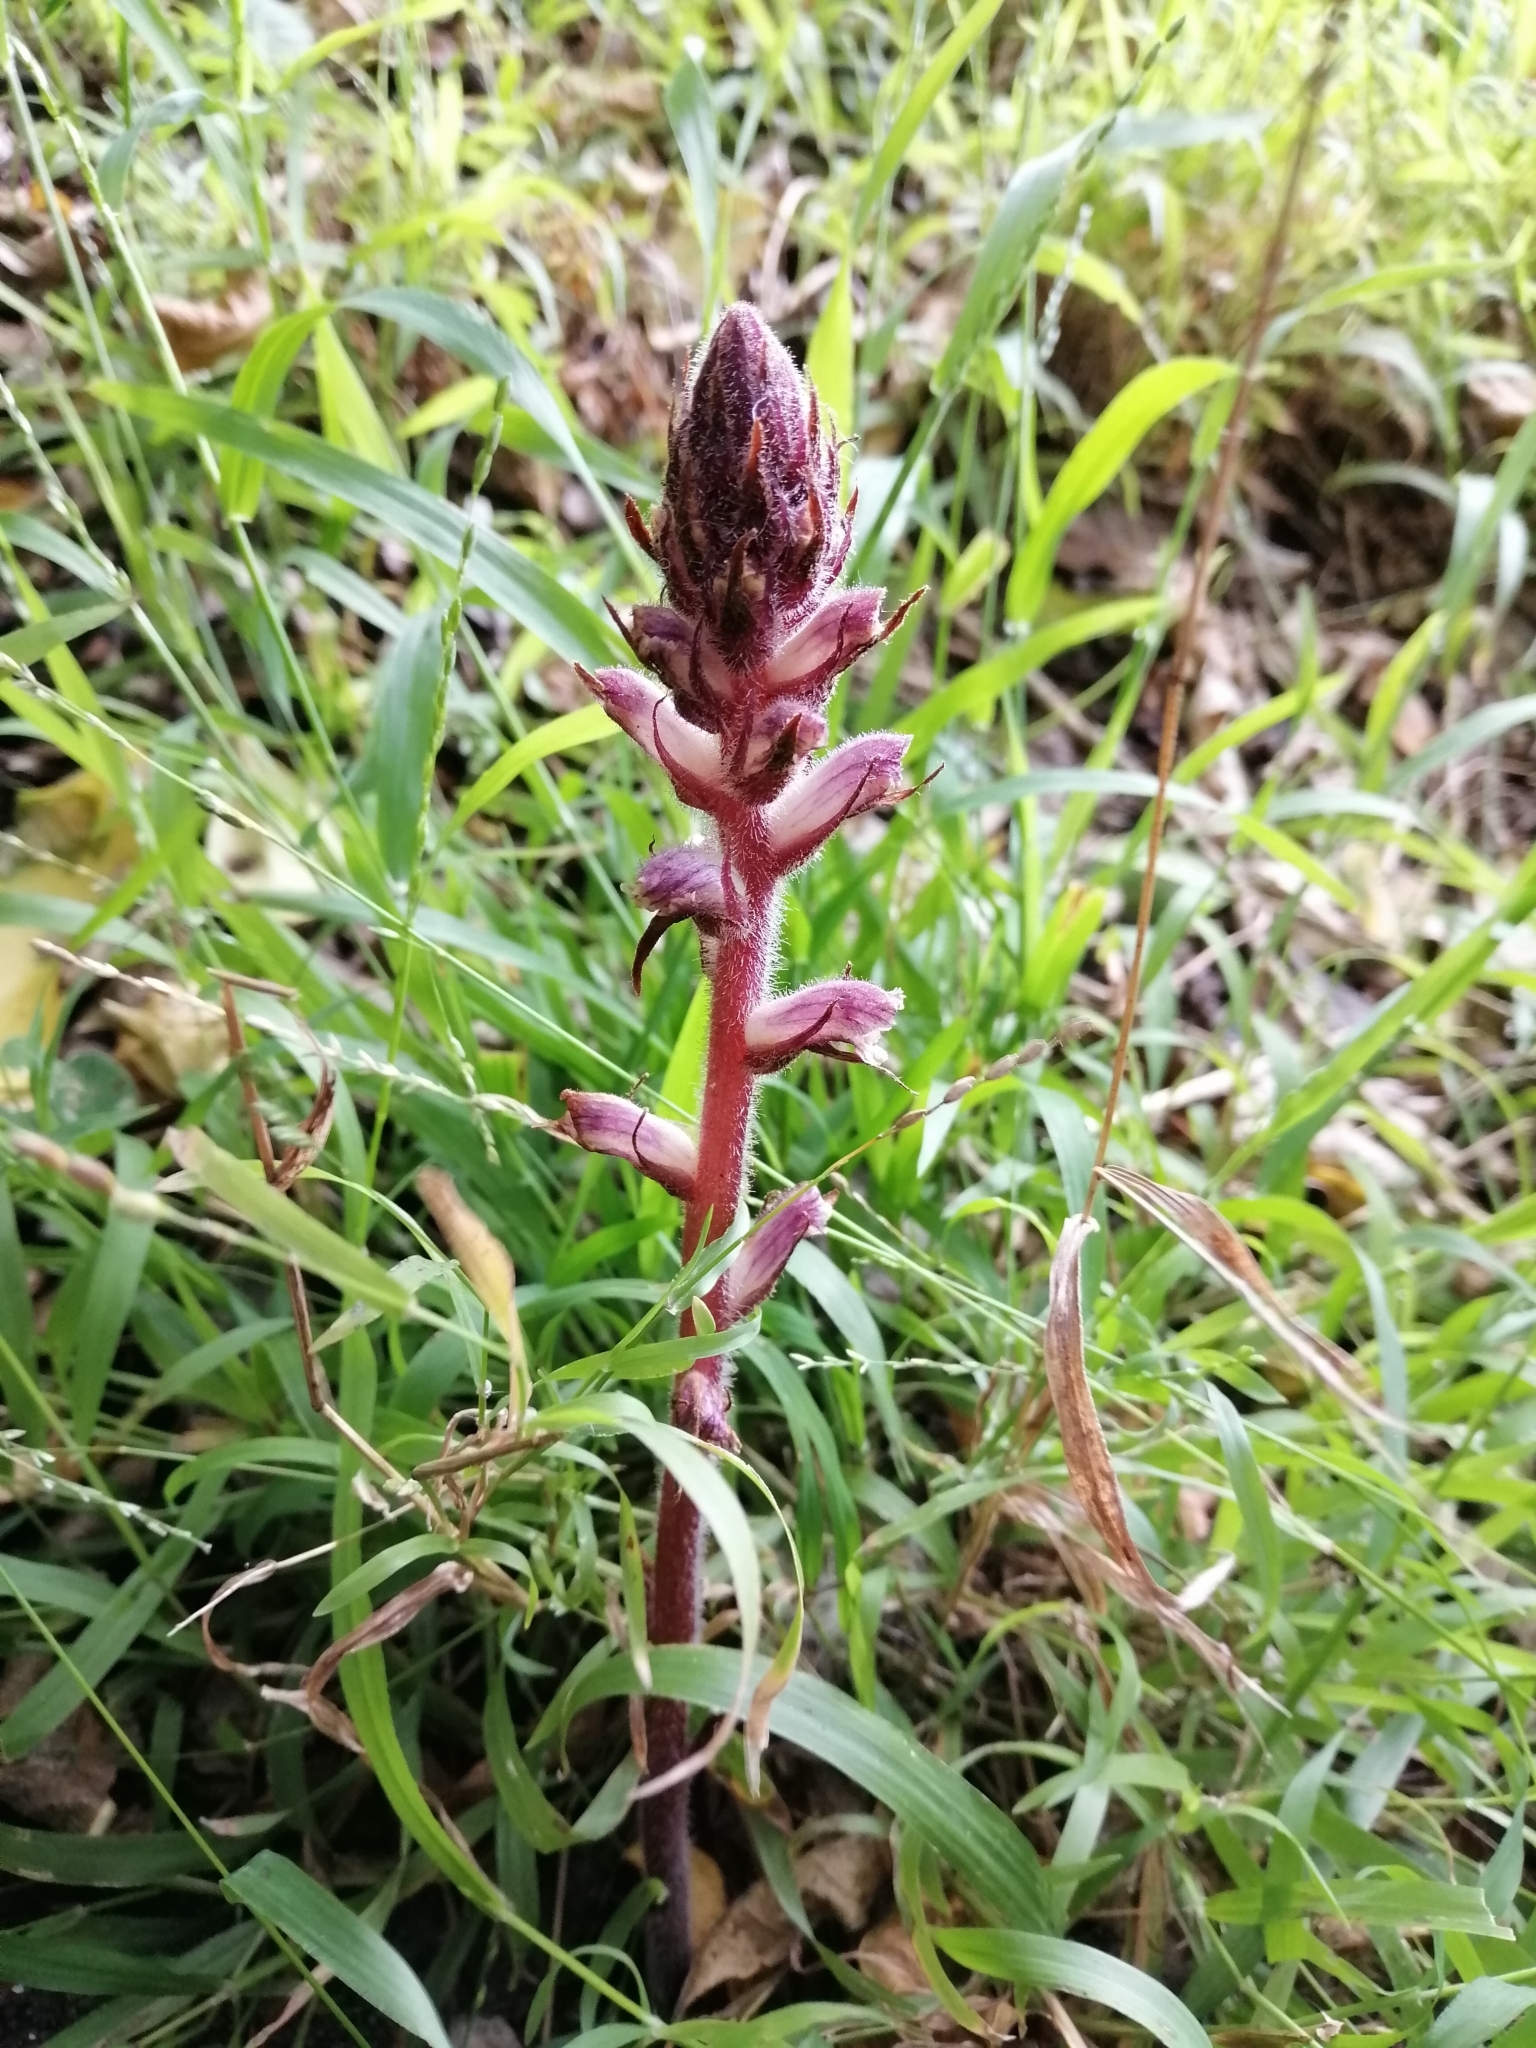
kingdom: Plantae
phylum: Tracheophyta
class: Magnoliopsida
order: Lamiales
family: Orobanchaceae
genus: Orobanche
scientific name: Orobanche minor
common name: Common broomrape
